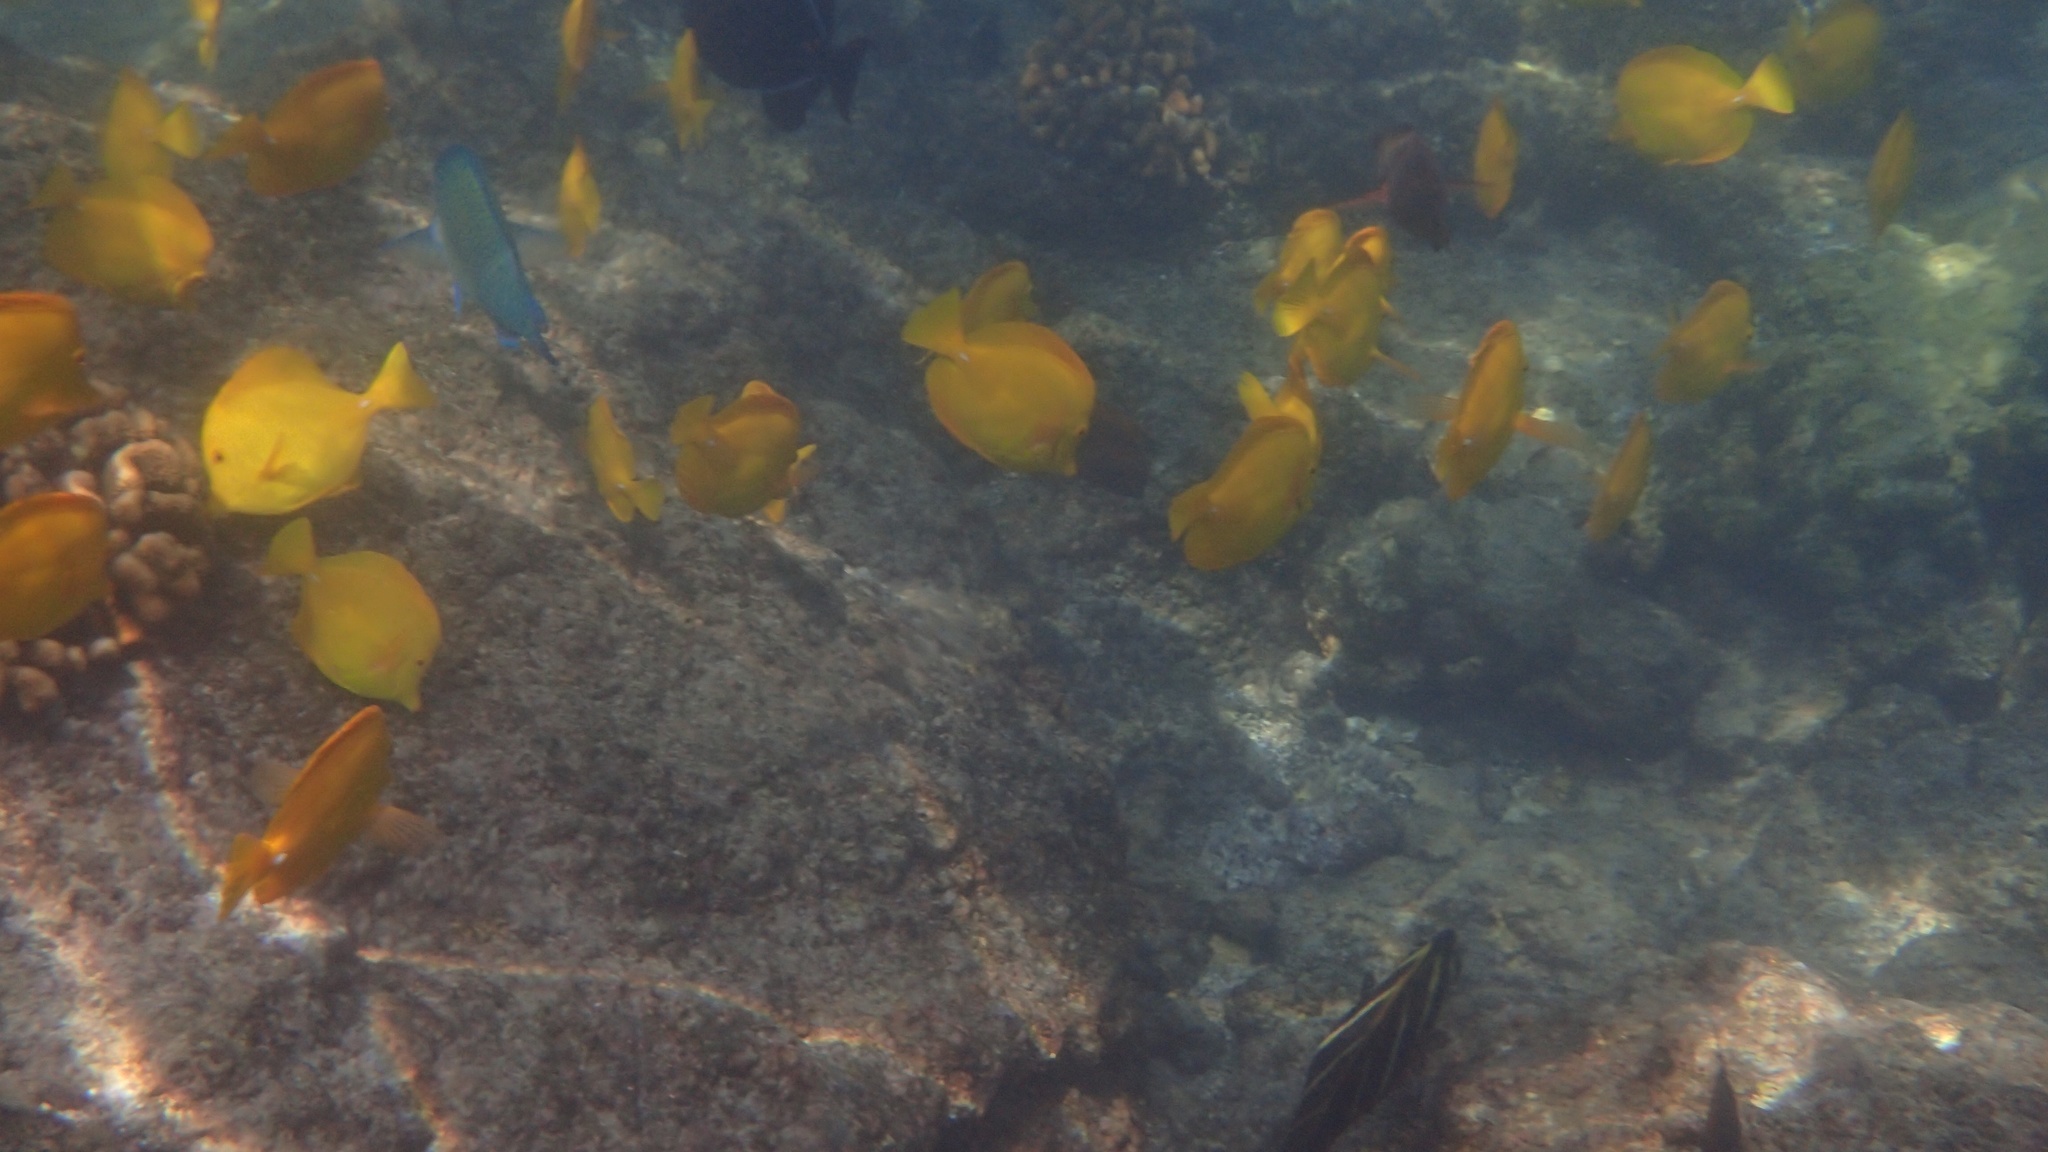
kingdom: Animalia
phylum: Chordata
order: Perciformes
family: Acanthuridae
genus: Zebrasoma
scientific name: Zebrasoma flavescens
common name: Yellow tang
